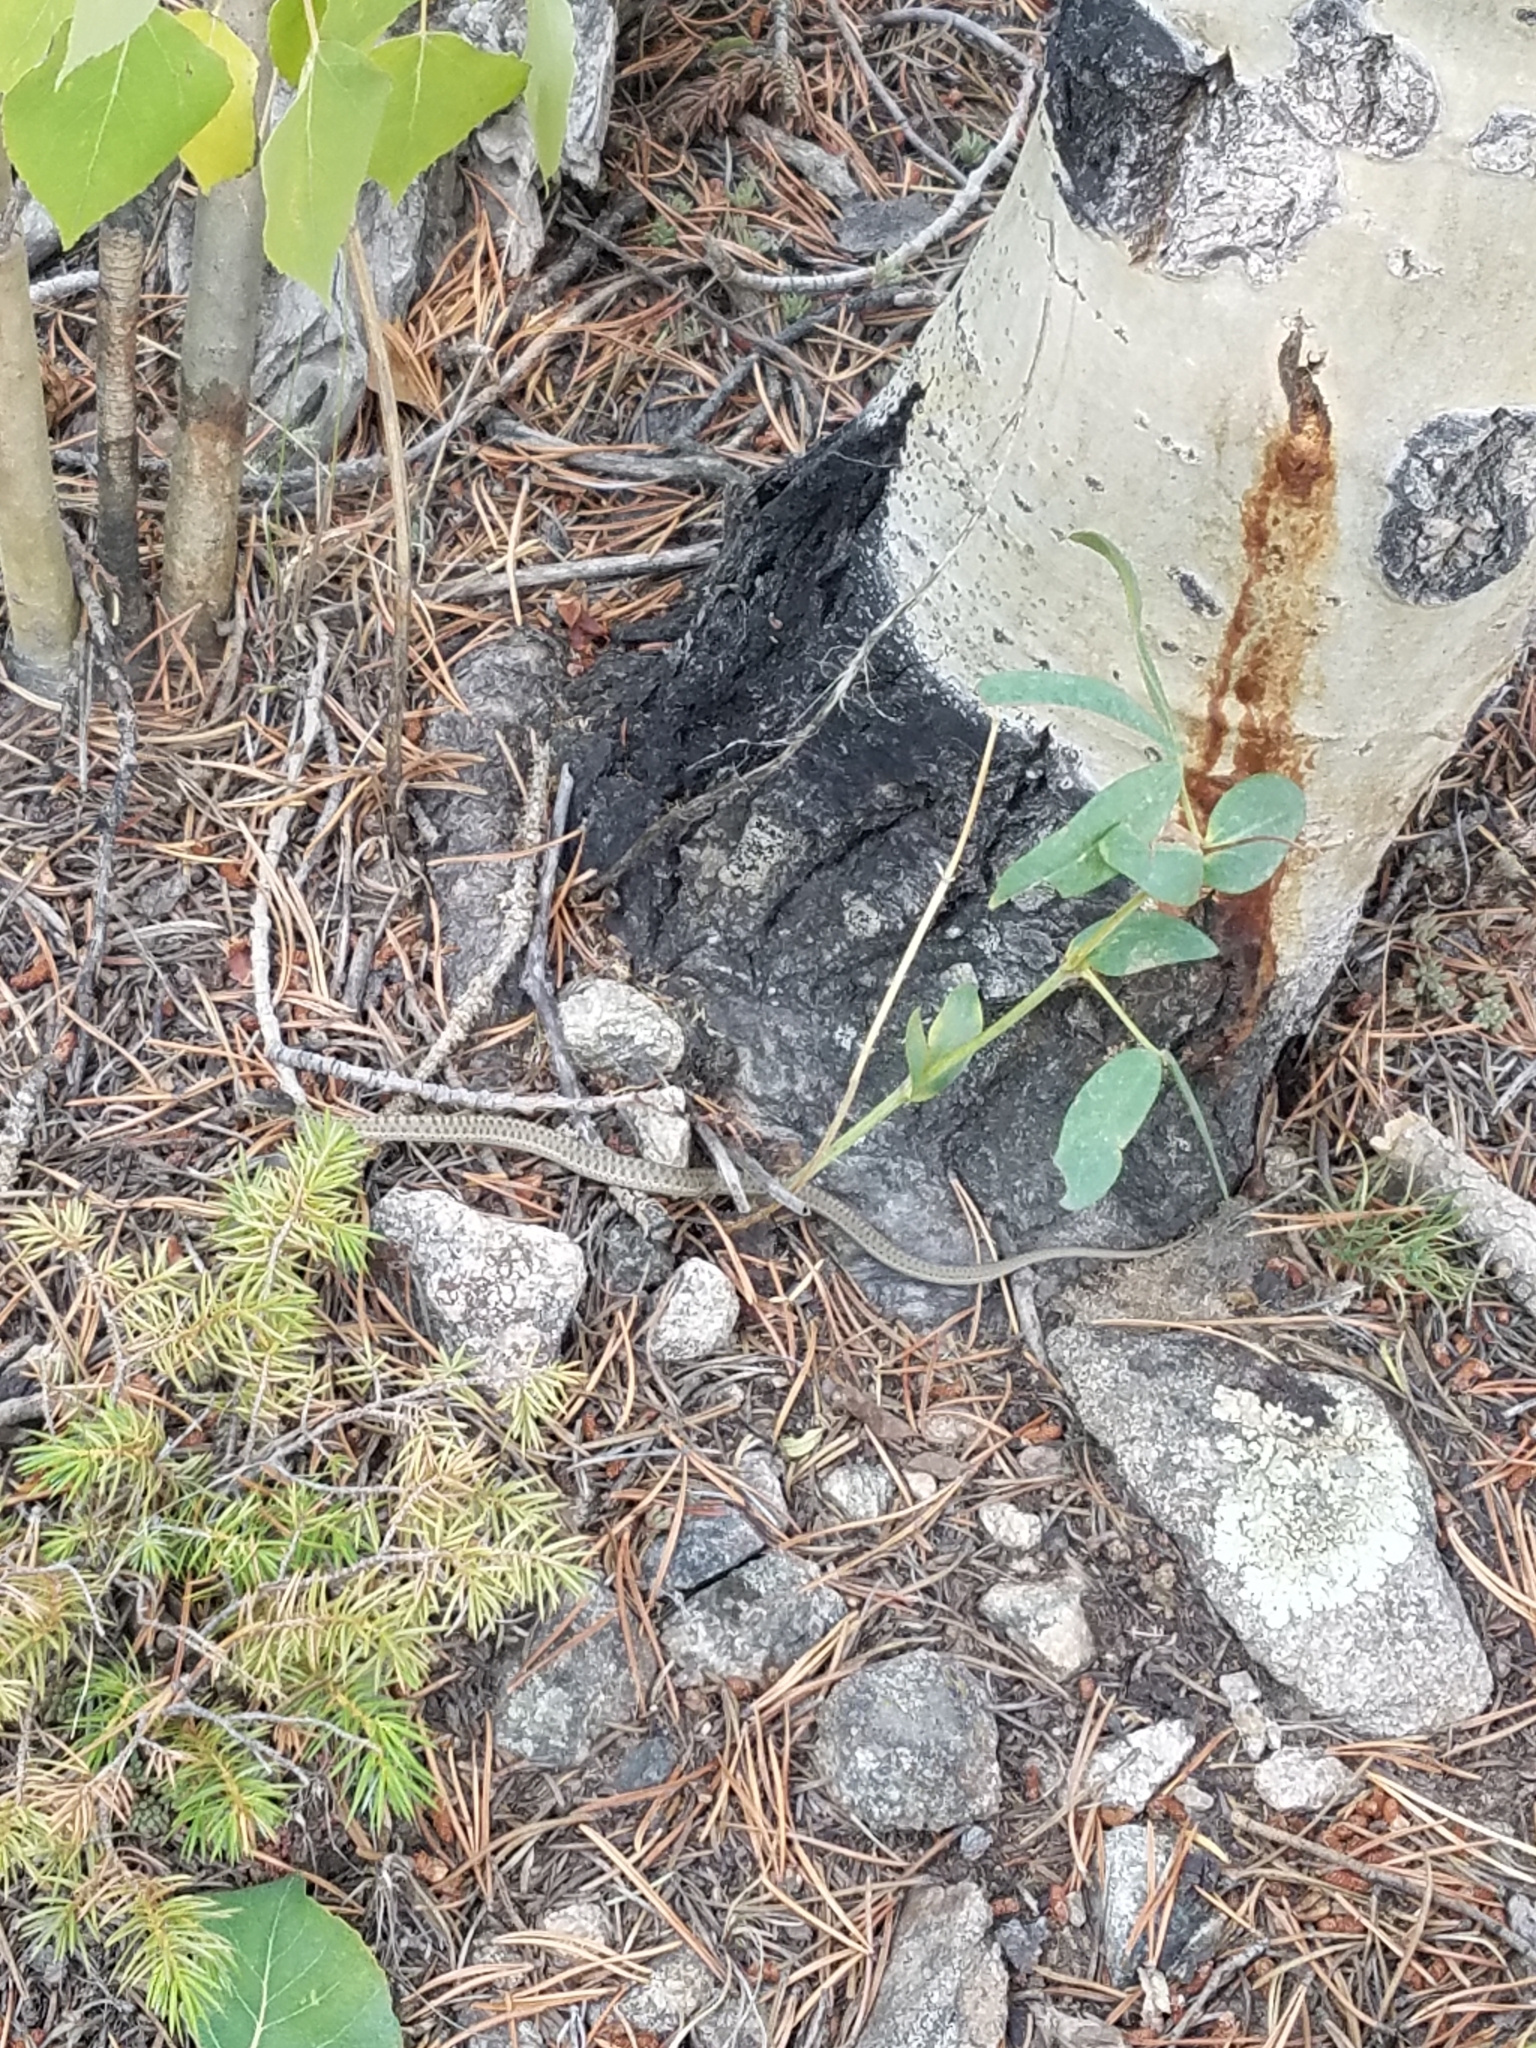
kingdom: Animalia
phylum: Chordata
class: Squamata
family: Colubridae
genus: Thamnophis
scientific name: Thamnophis elegans
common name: Western terrestrial garter snake
